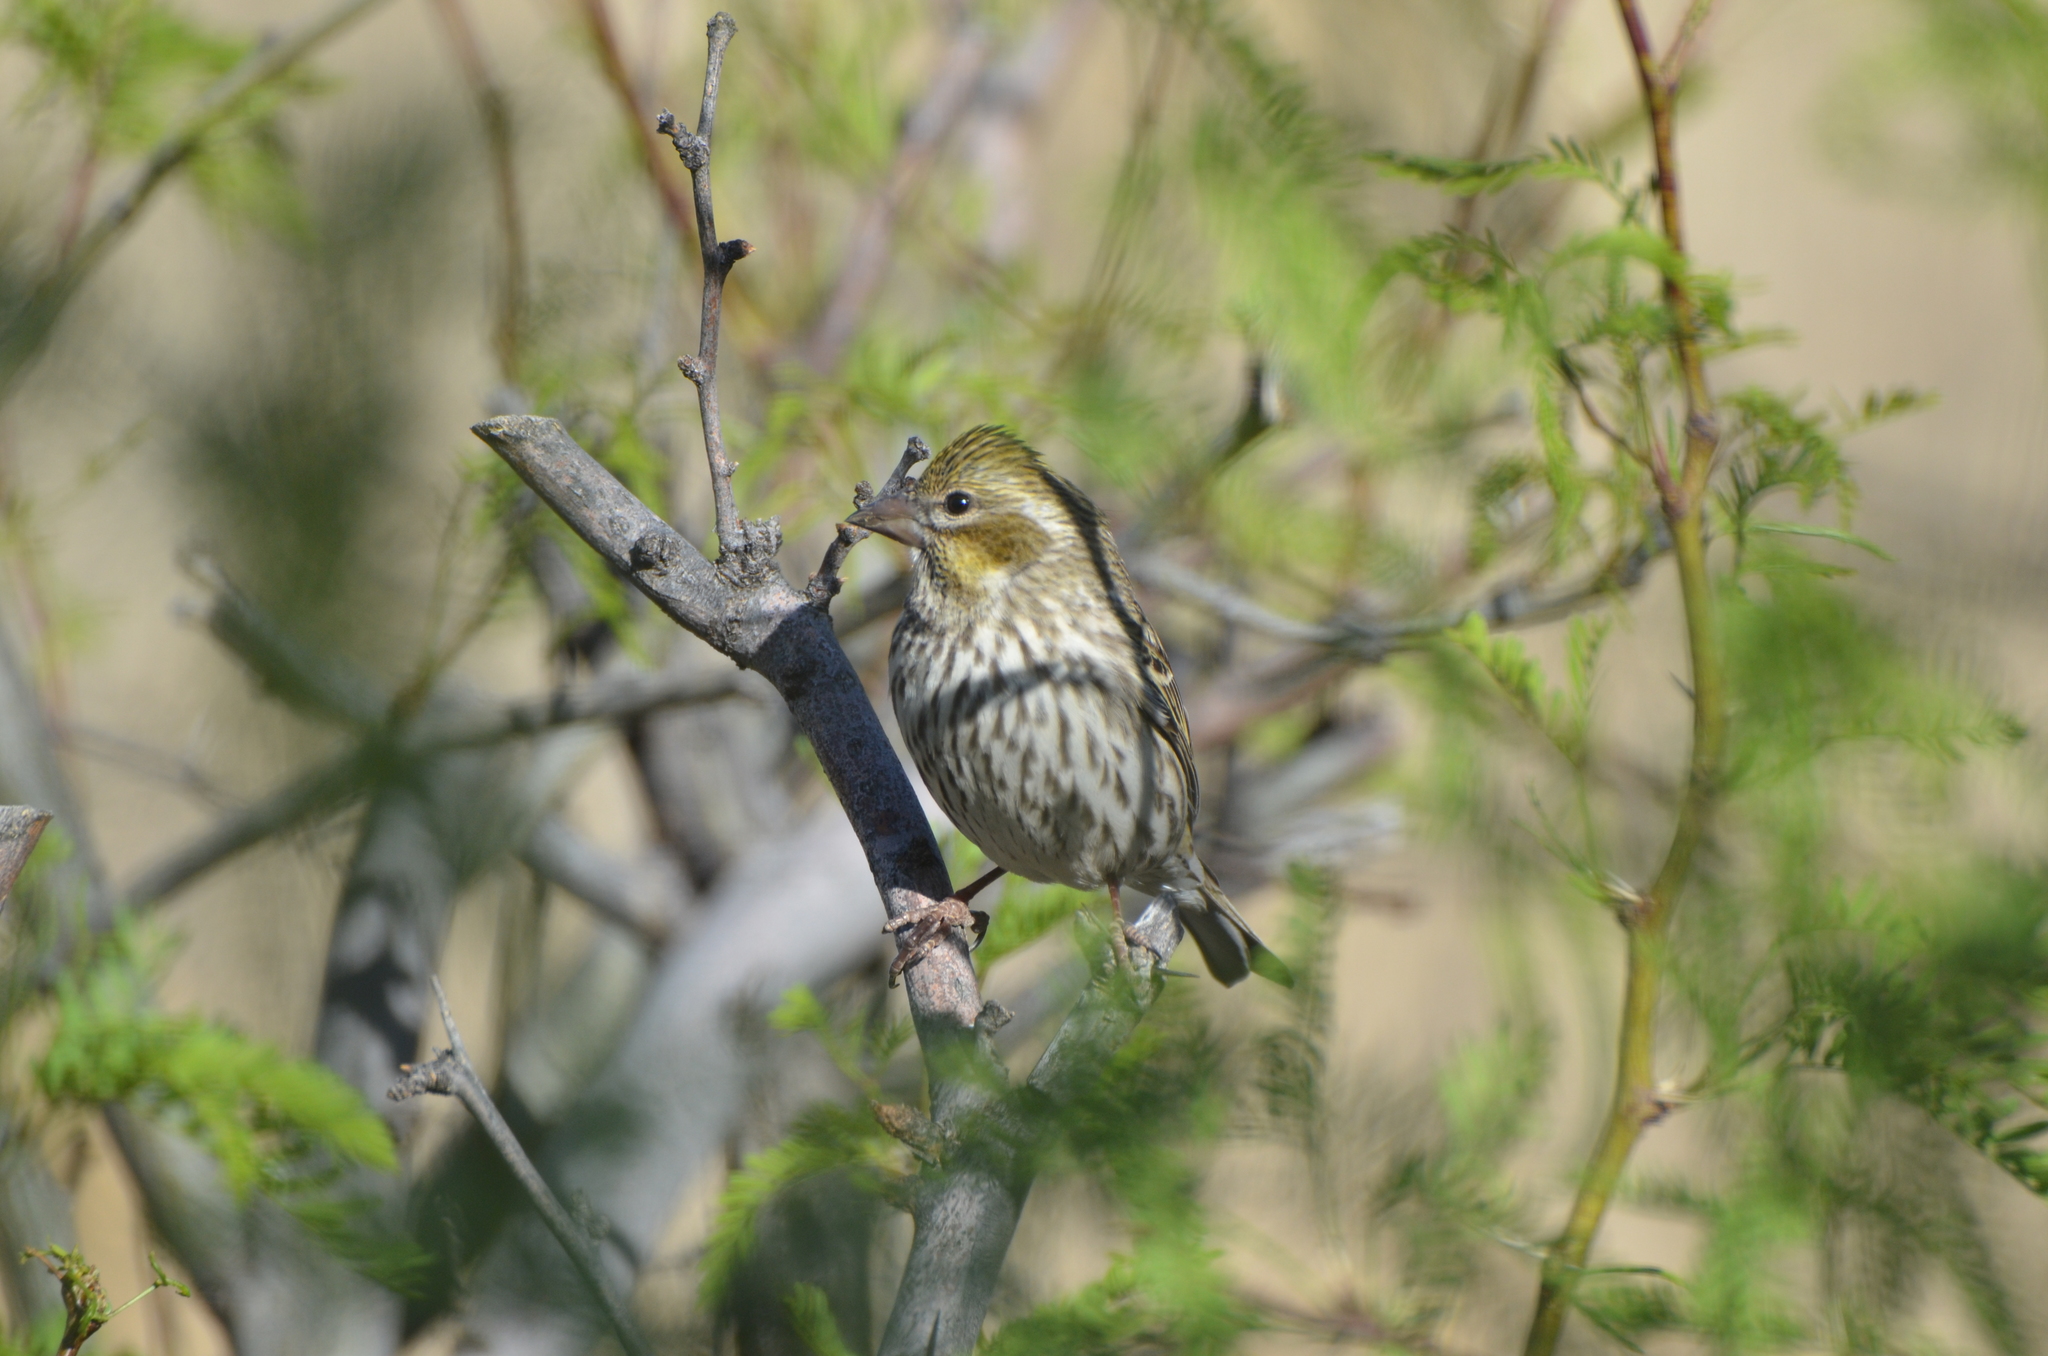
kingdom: Animalia
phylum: Chordata
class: Aves
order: Passeriformes
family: Fringillidae
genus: Haemorhous
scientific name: Haemorhous cassinii
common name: Cassin's finch
